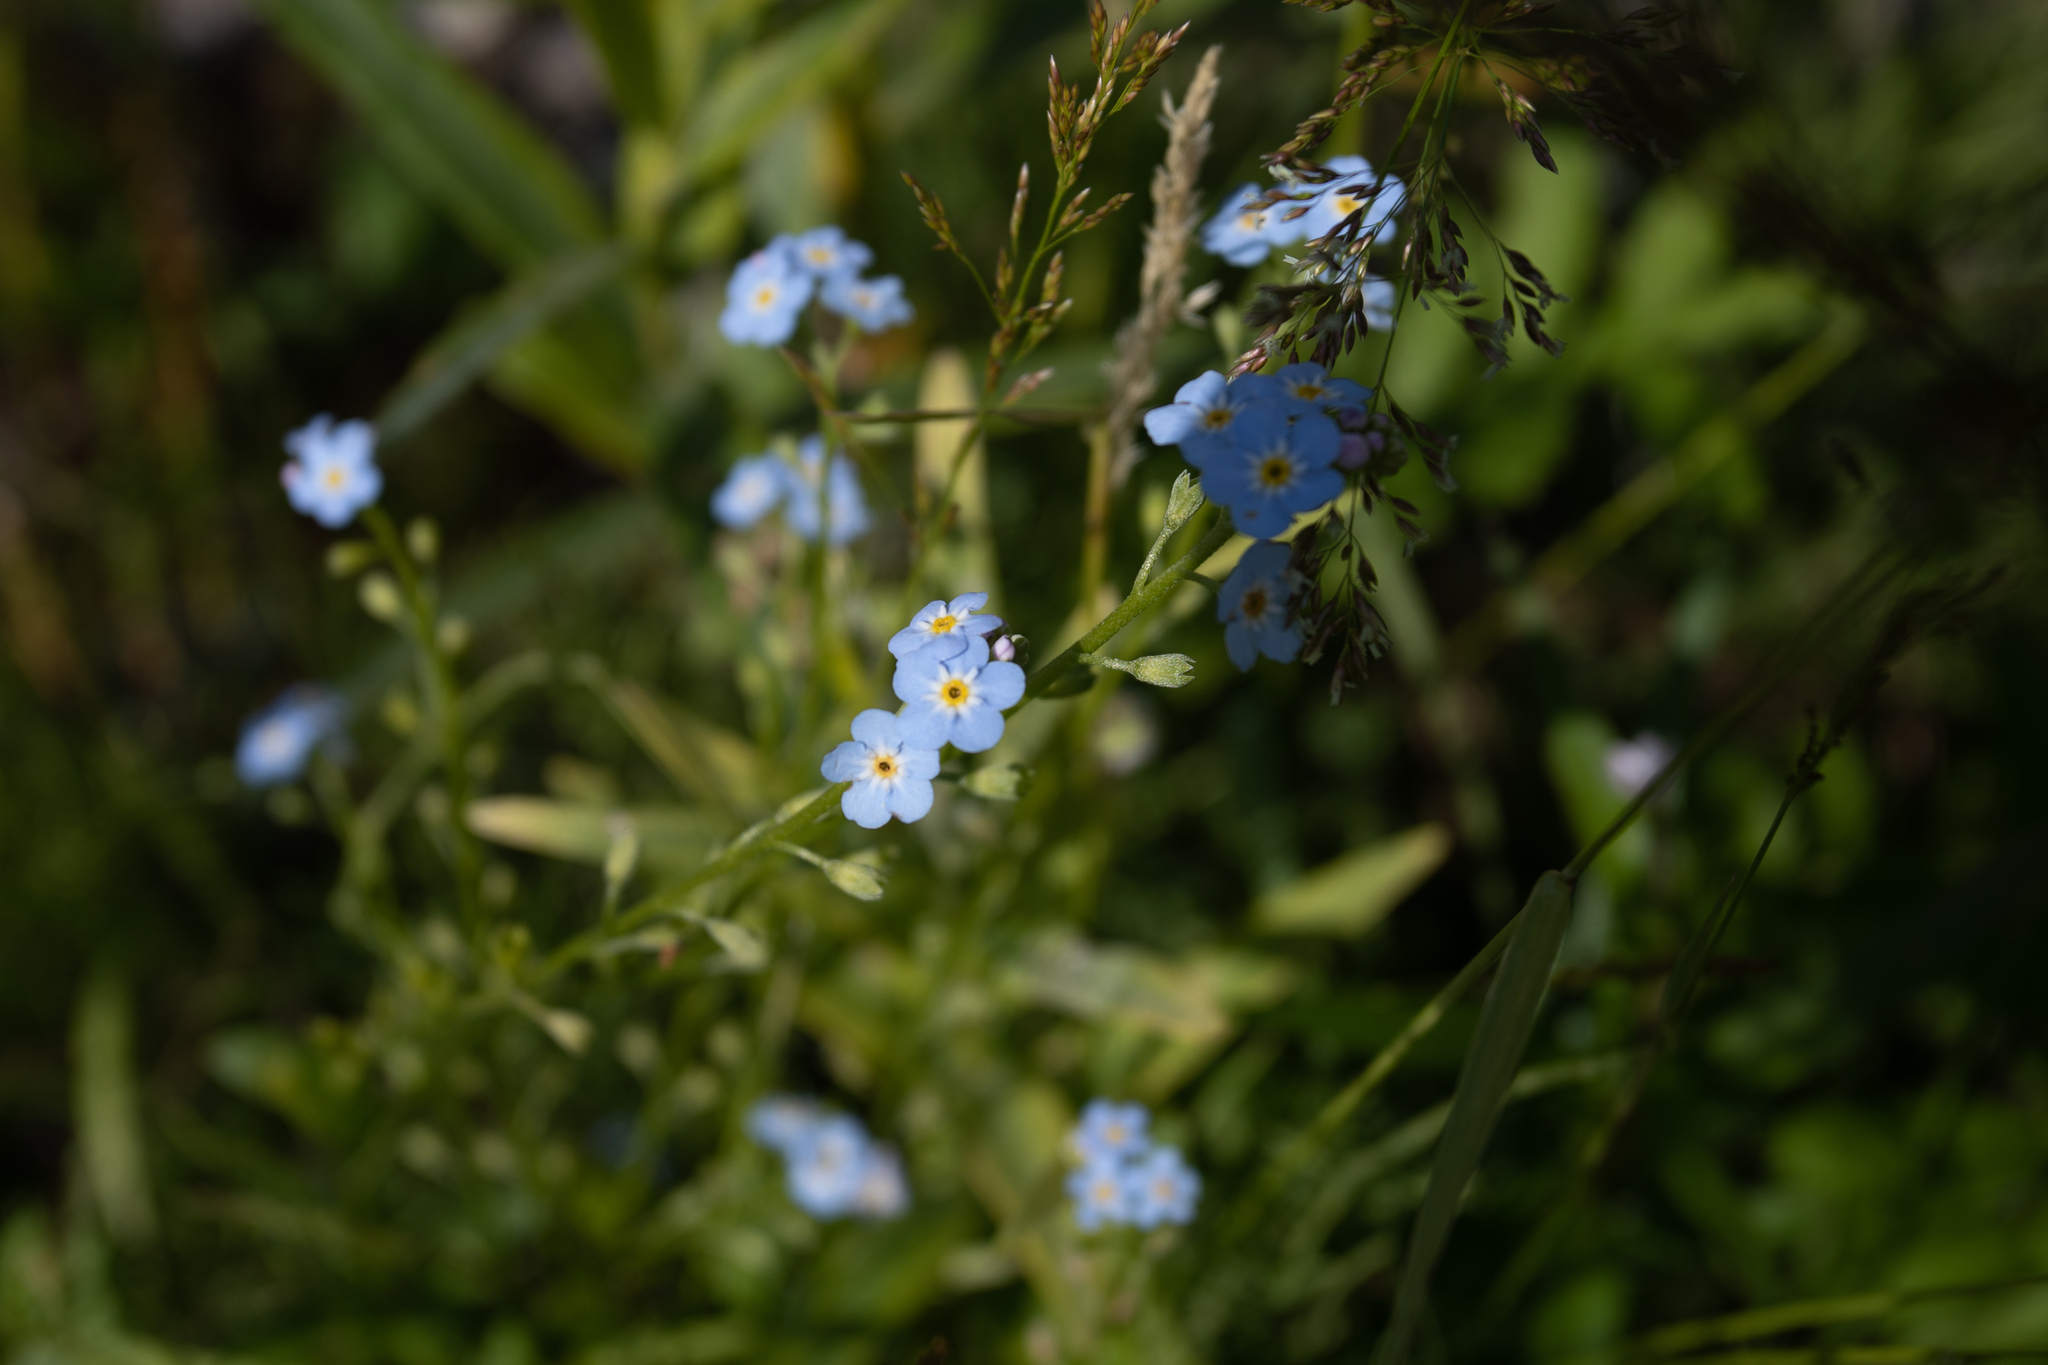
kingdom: Plantae
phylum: Tracheophyta
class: Magnoliopsida
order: Boraginales
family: Boraginaceae
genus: Myosotis
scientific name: Myosotis scorpioides
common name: Water forget-me-not
